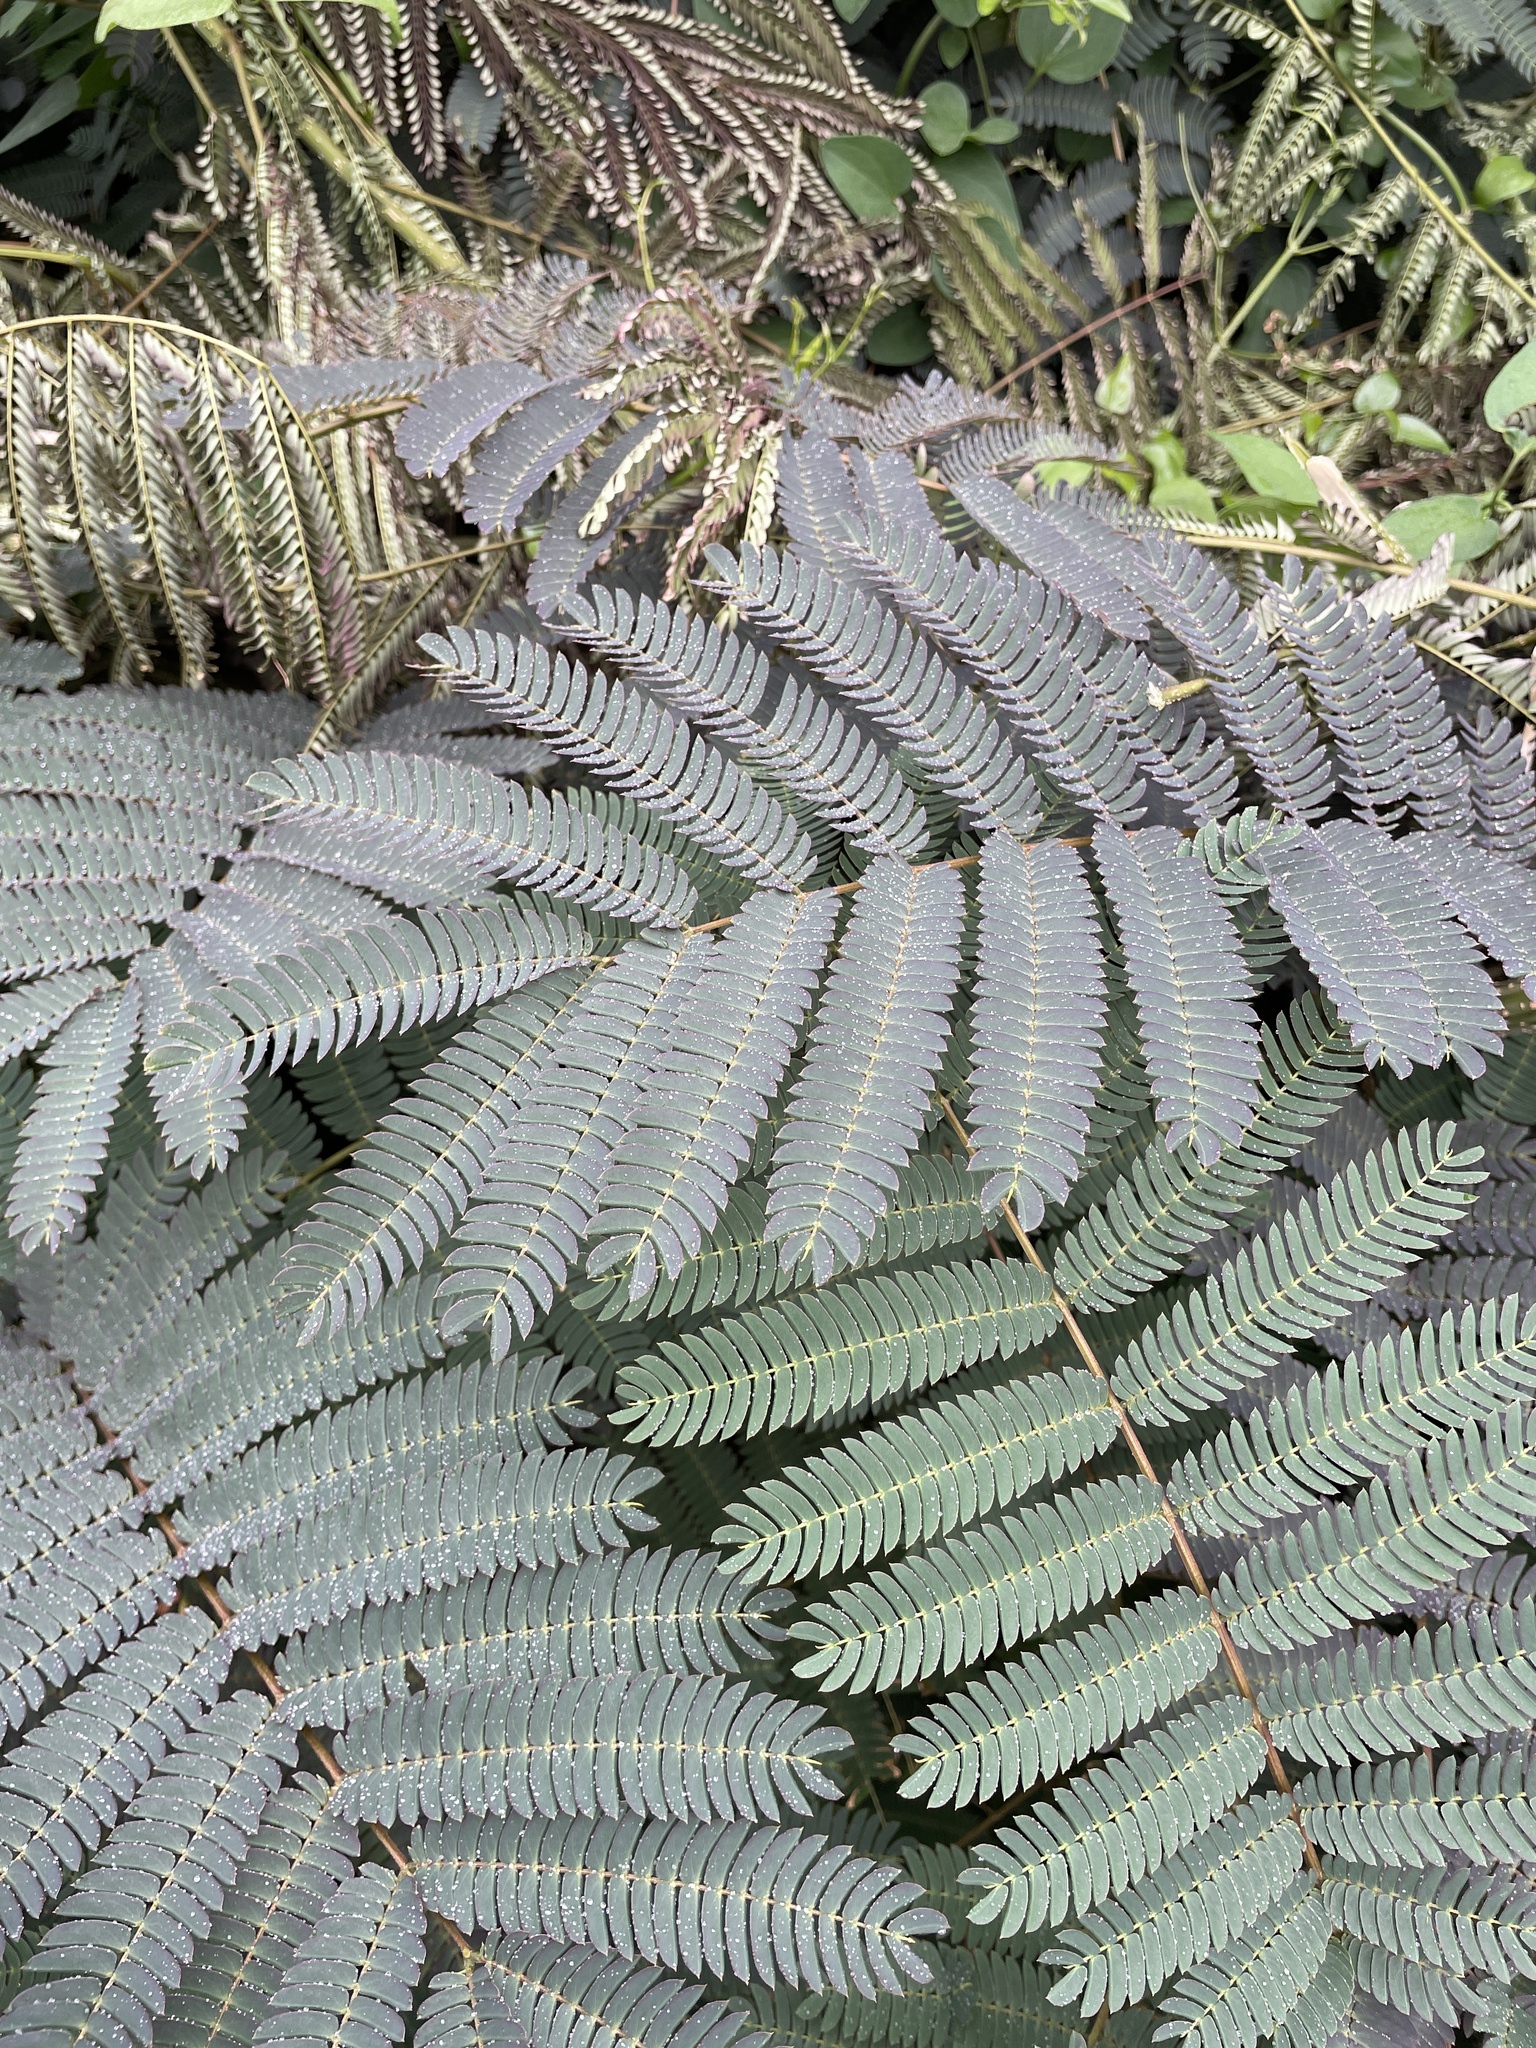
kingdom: Plantae
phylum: Tracheophyta
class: Magnoliopsida
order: Fabales
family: Fabaceae
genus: Albizia
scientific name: Albizia julibrissin
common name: Silktree
